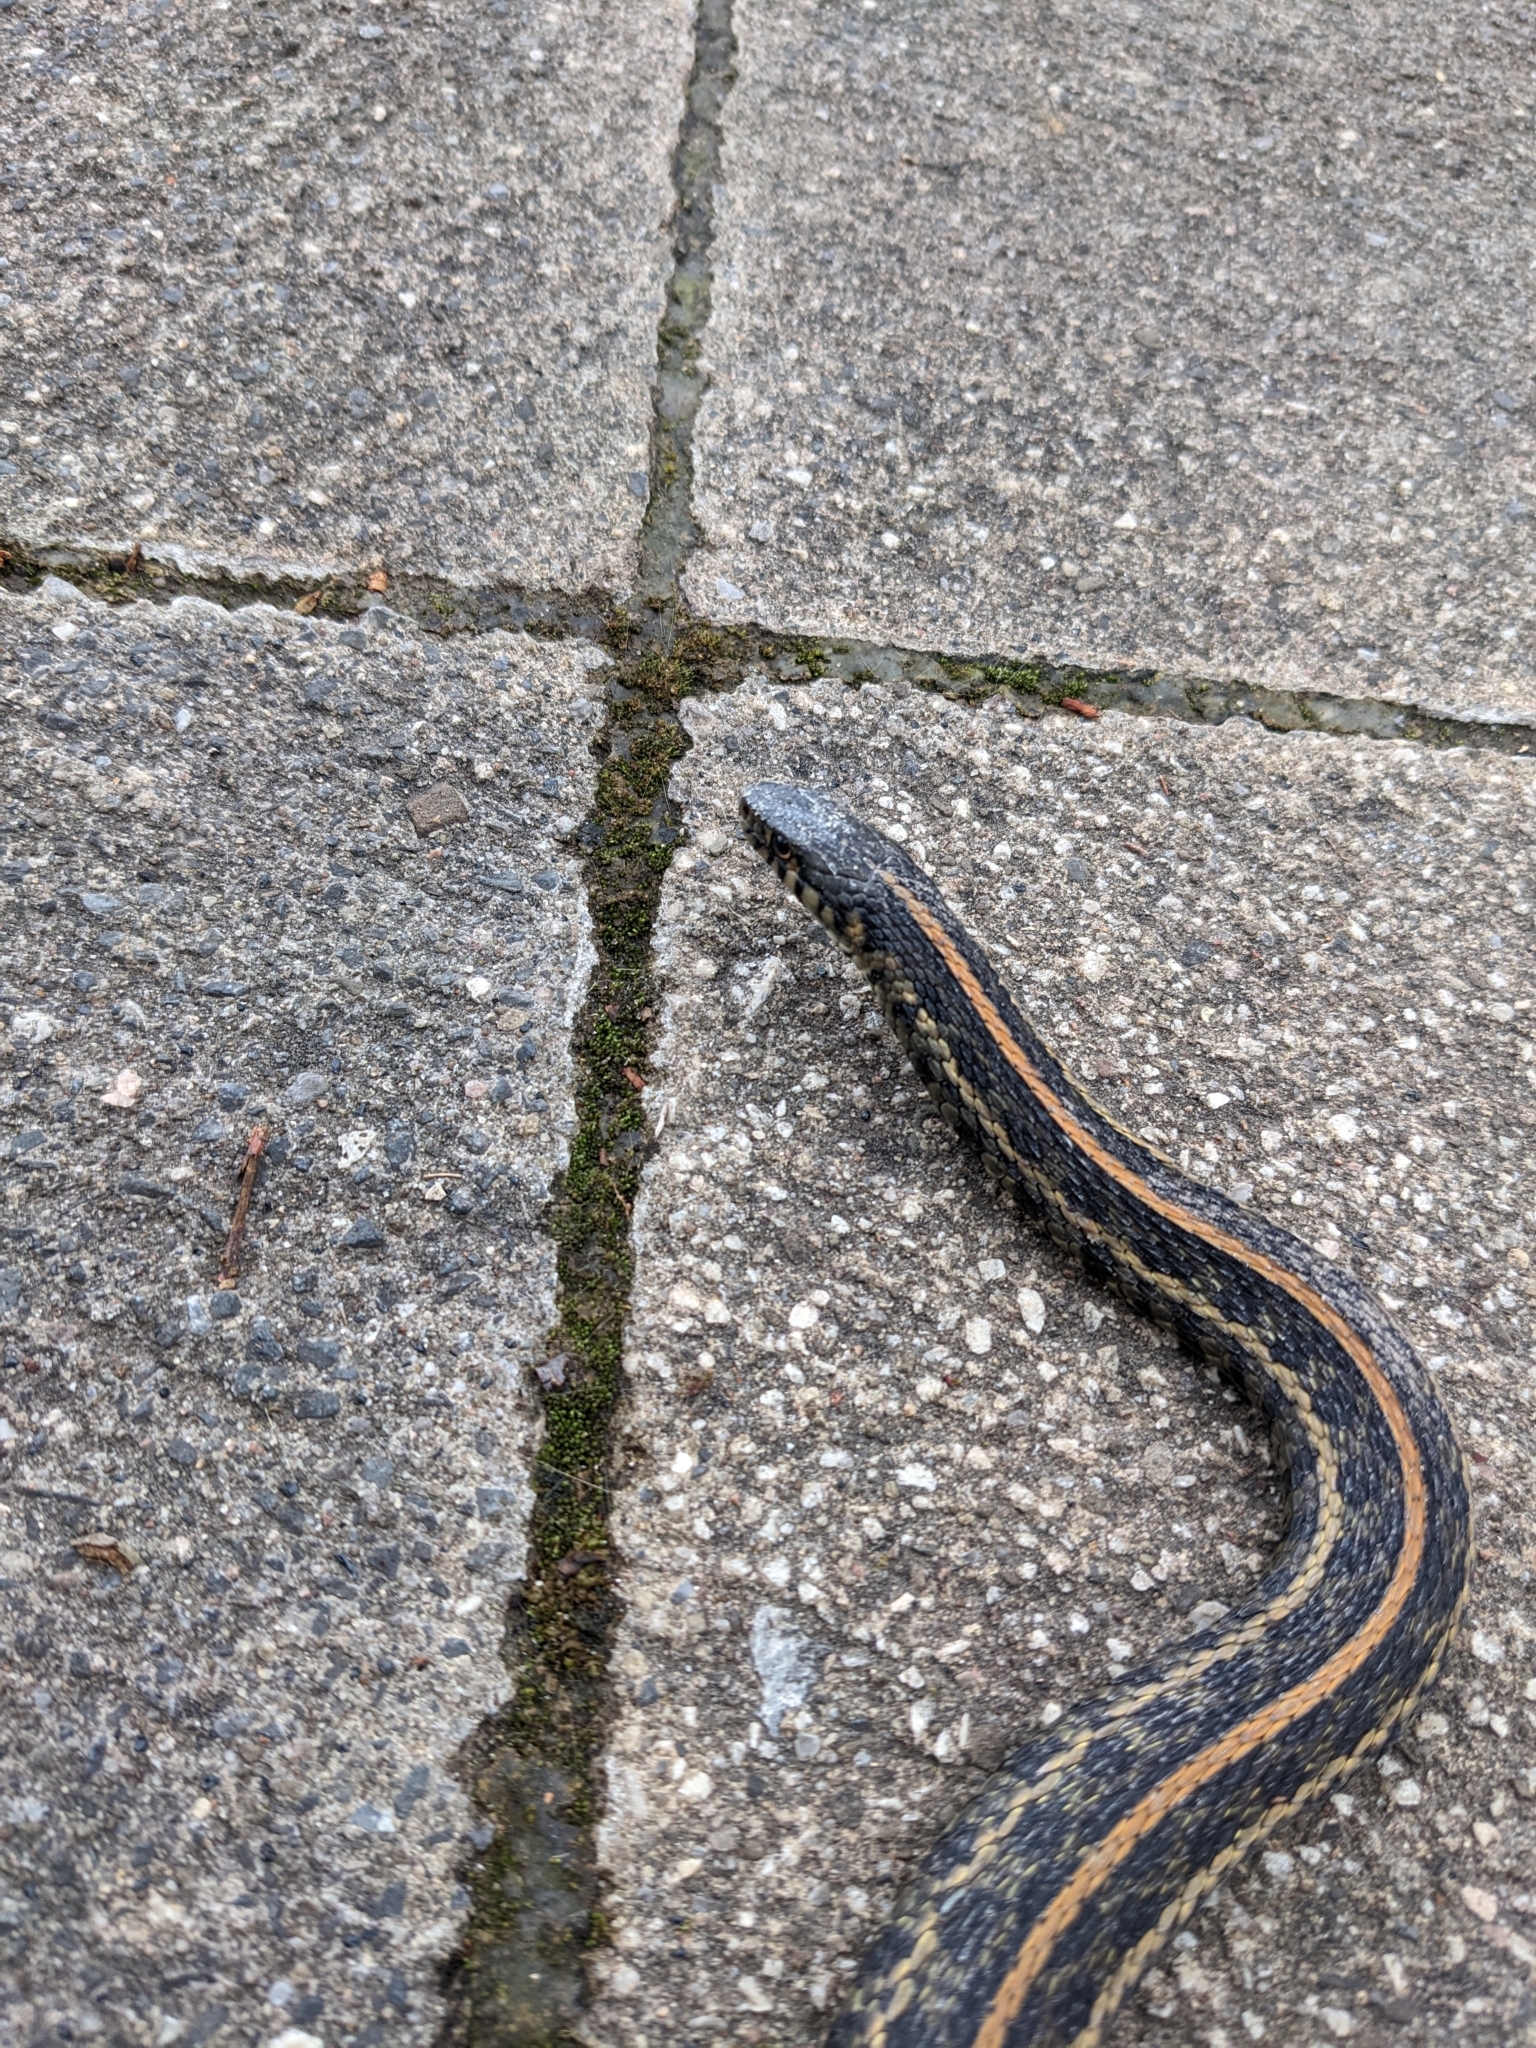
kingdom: Animalia
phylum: Chordata
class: Squamata
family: Colubridae
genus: Thamnophis
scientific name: Thamnophis radix
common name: Plains garter snake
